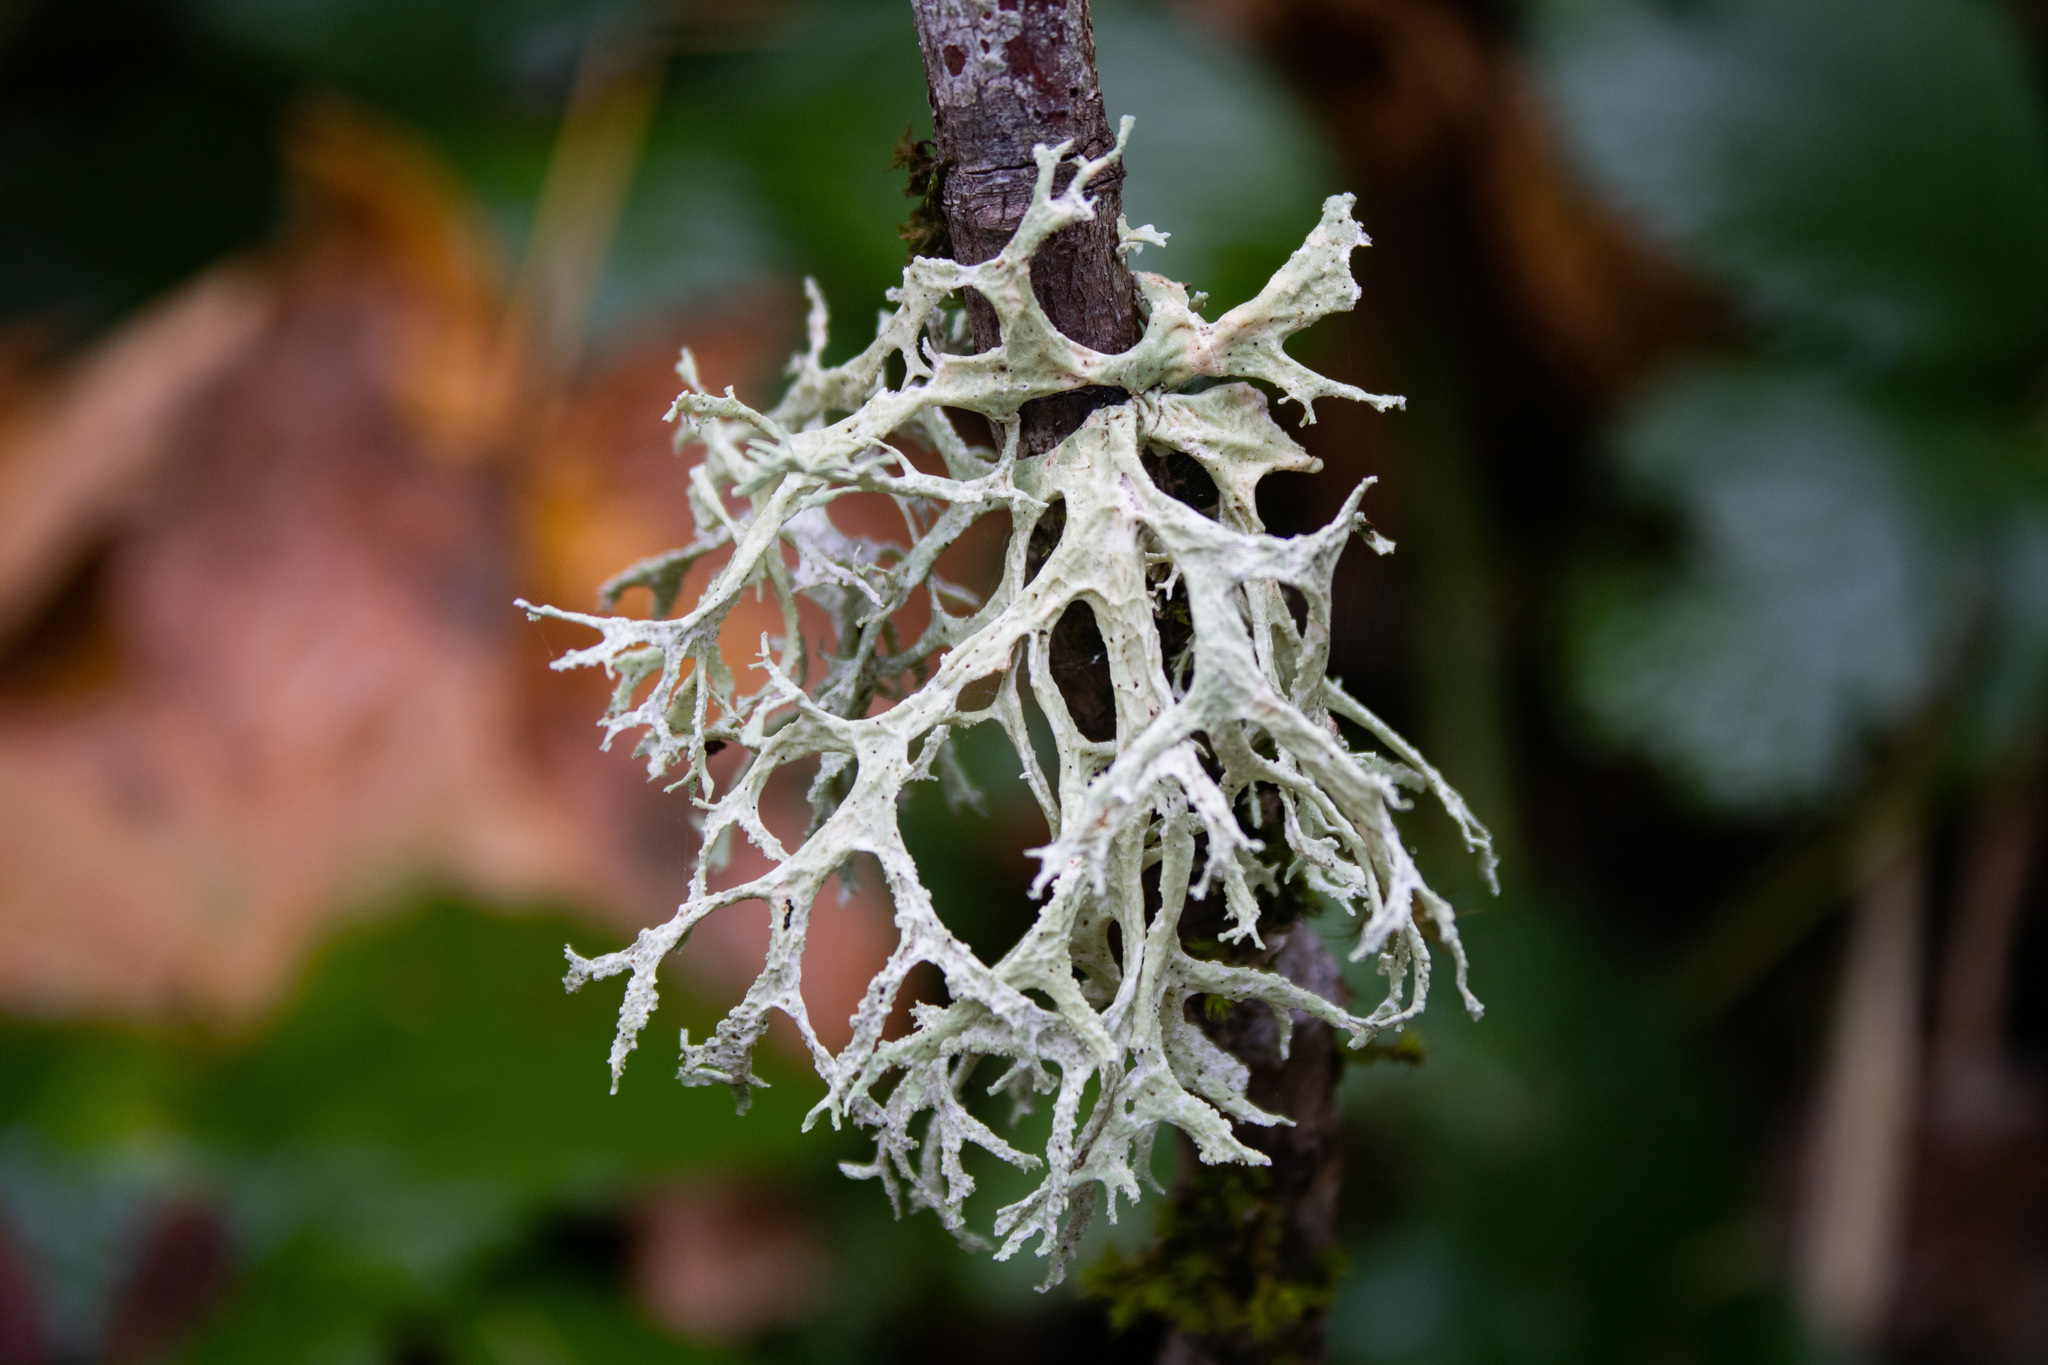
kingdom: Fungi
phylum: Ascomycota
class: Lecanoromycetes
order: Lecanorales
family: Parmeliaceae
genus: Evernia
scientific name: Evernia prunastri
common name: Oak moss
